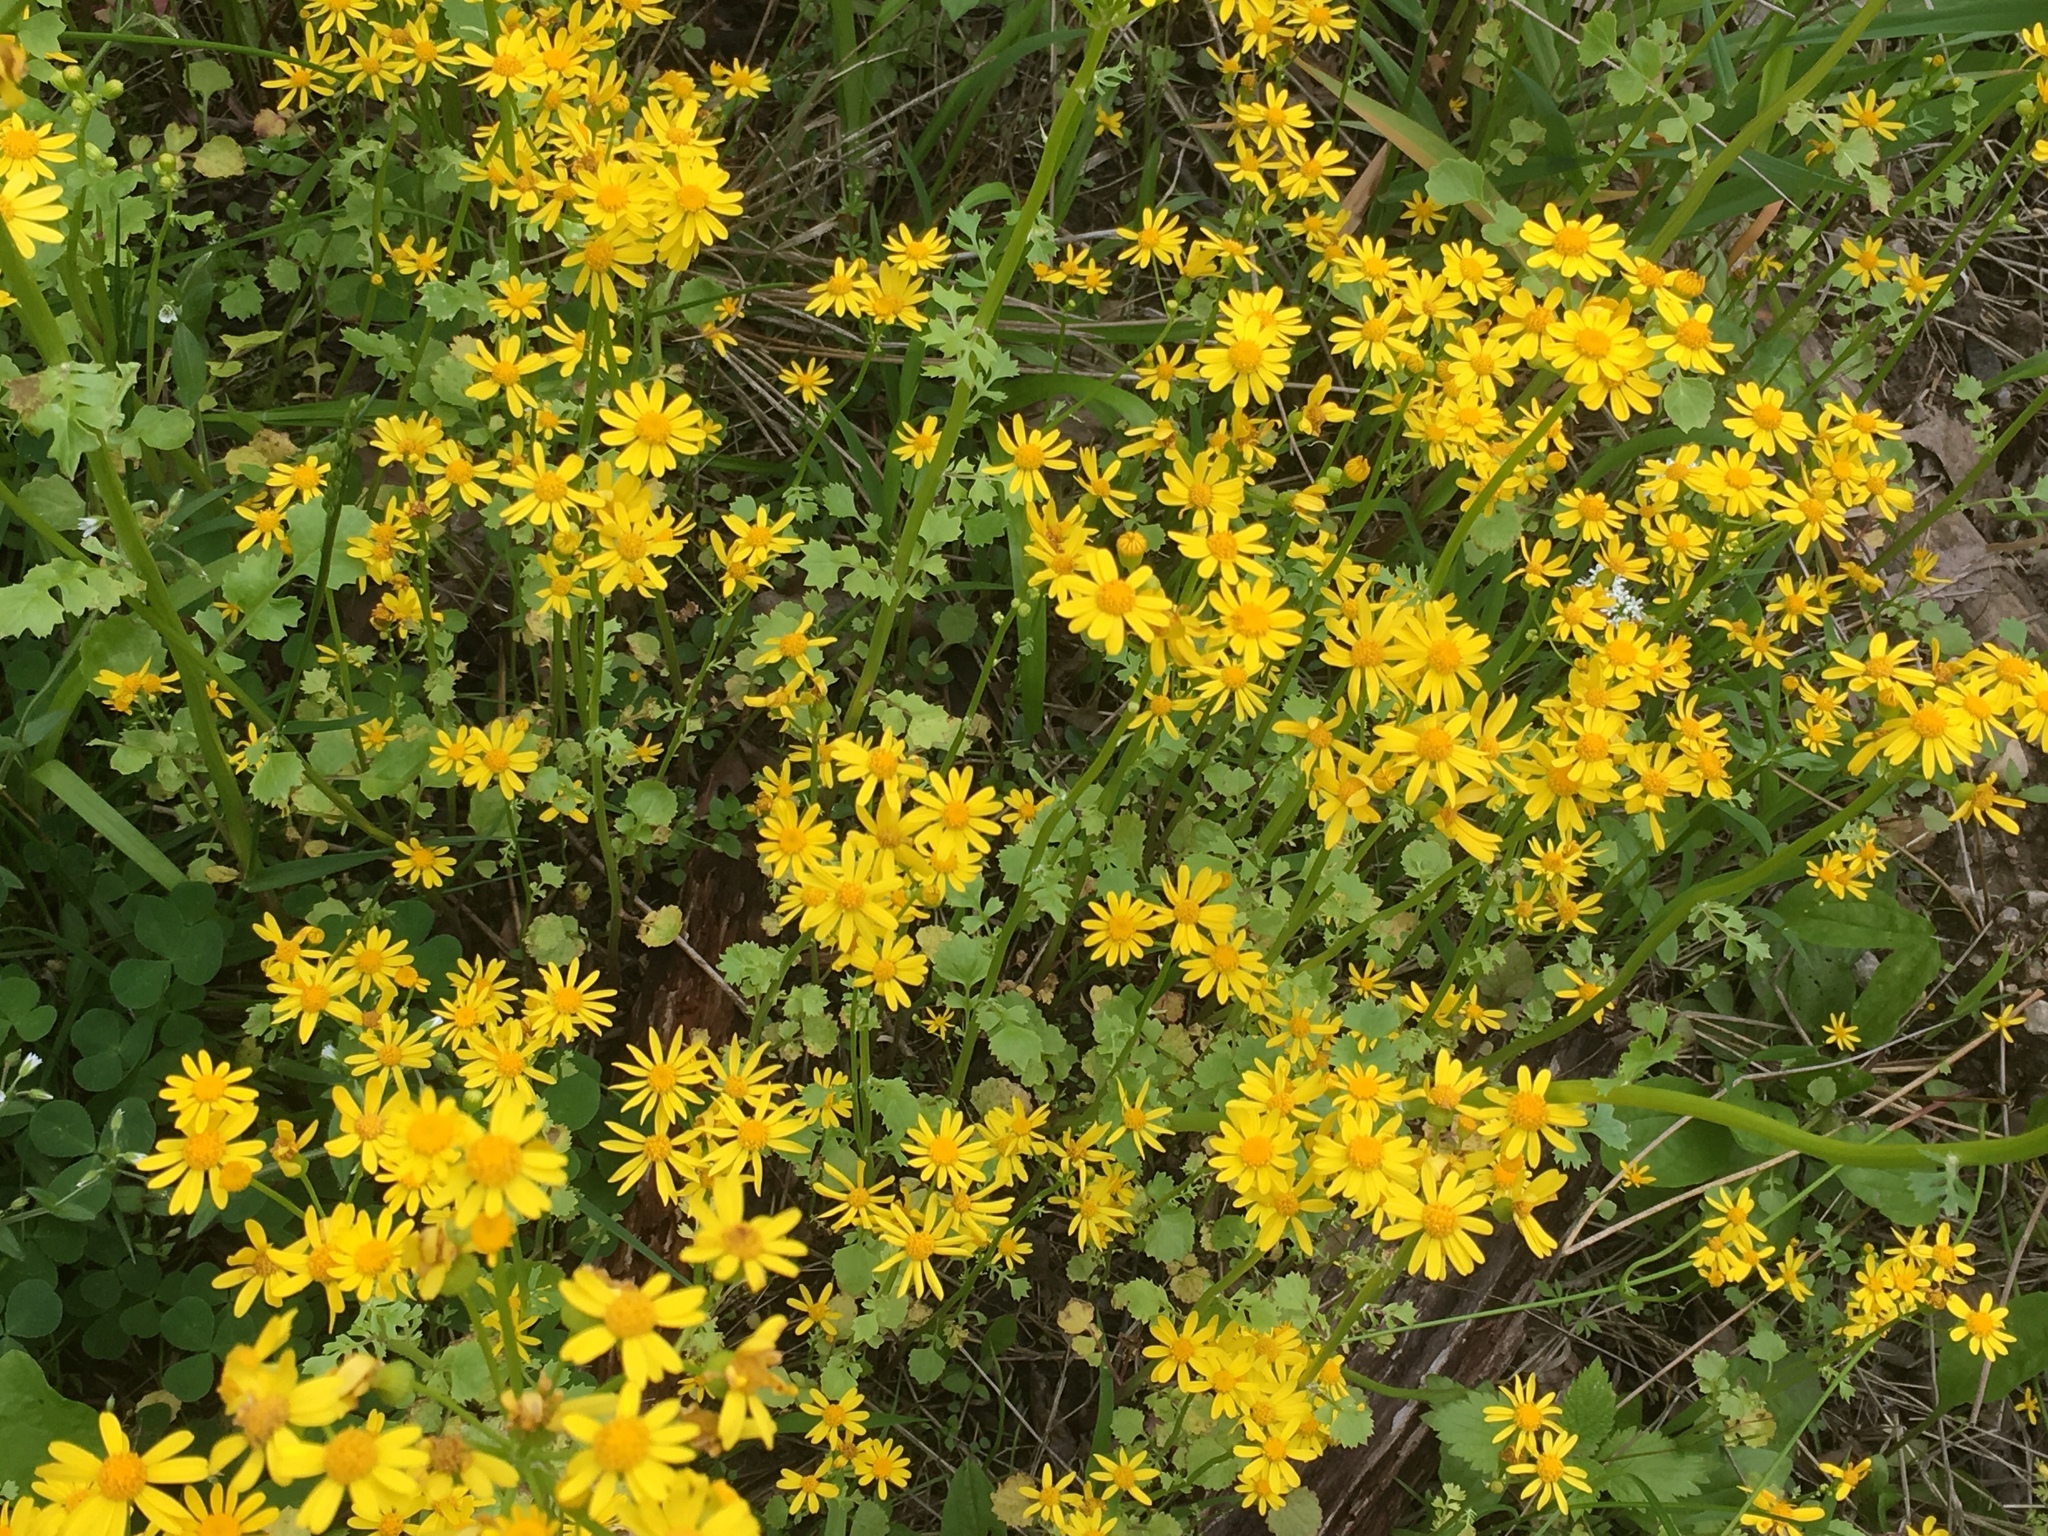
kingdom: Plantae
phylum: Tracheophyta
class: Magnoliopsida
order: Asterales
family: Asteraceae
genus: Packera
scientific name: Packera glabella
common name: Butterweed
